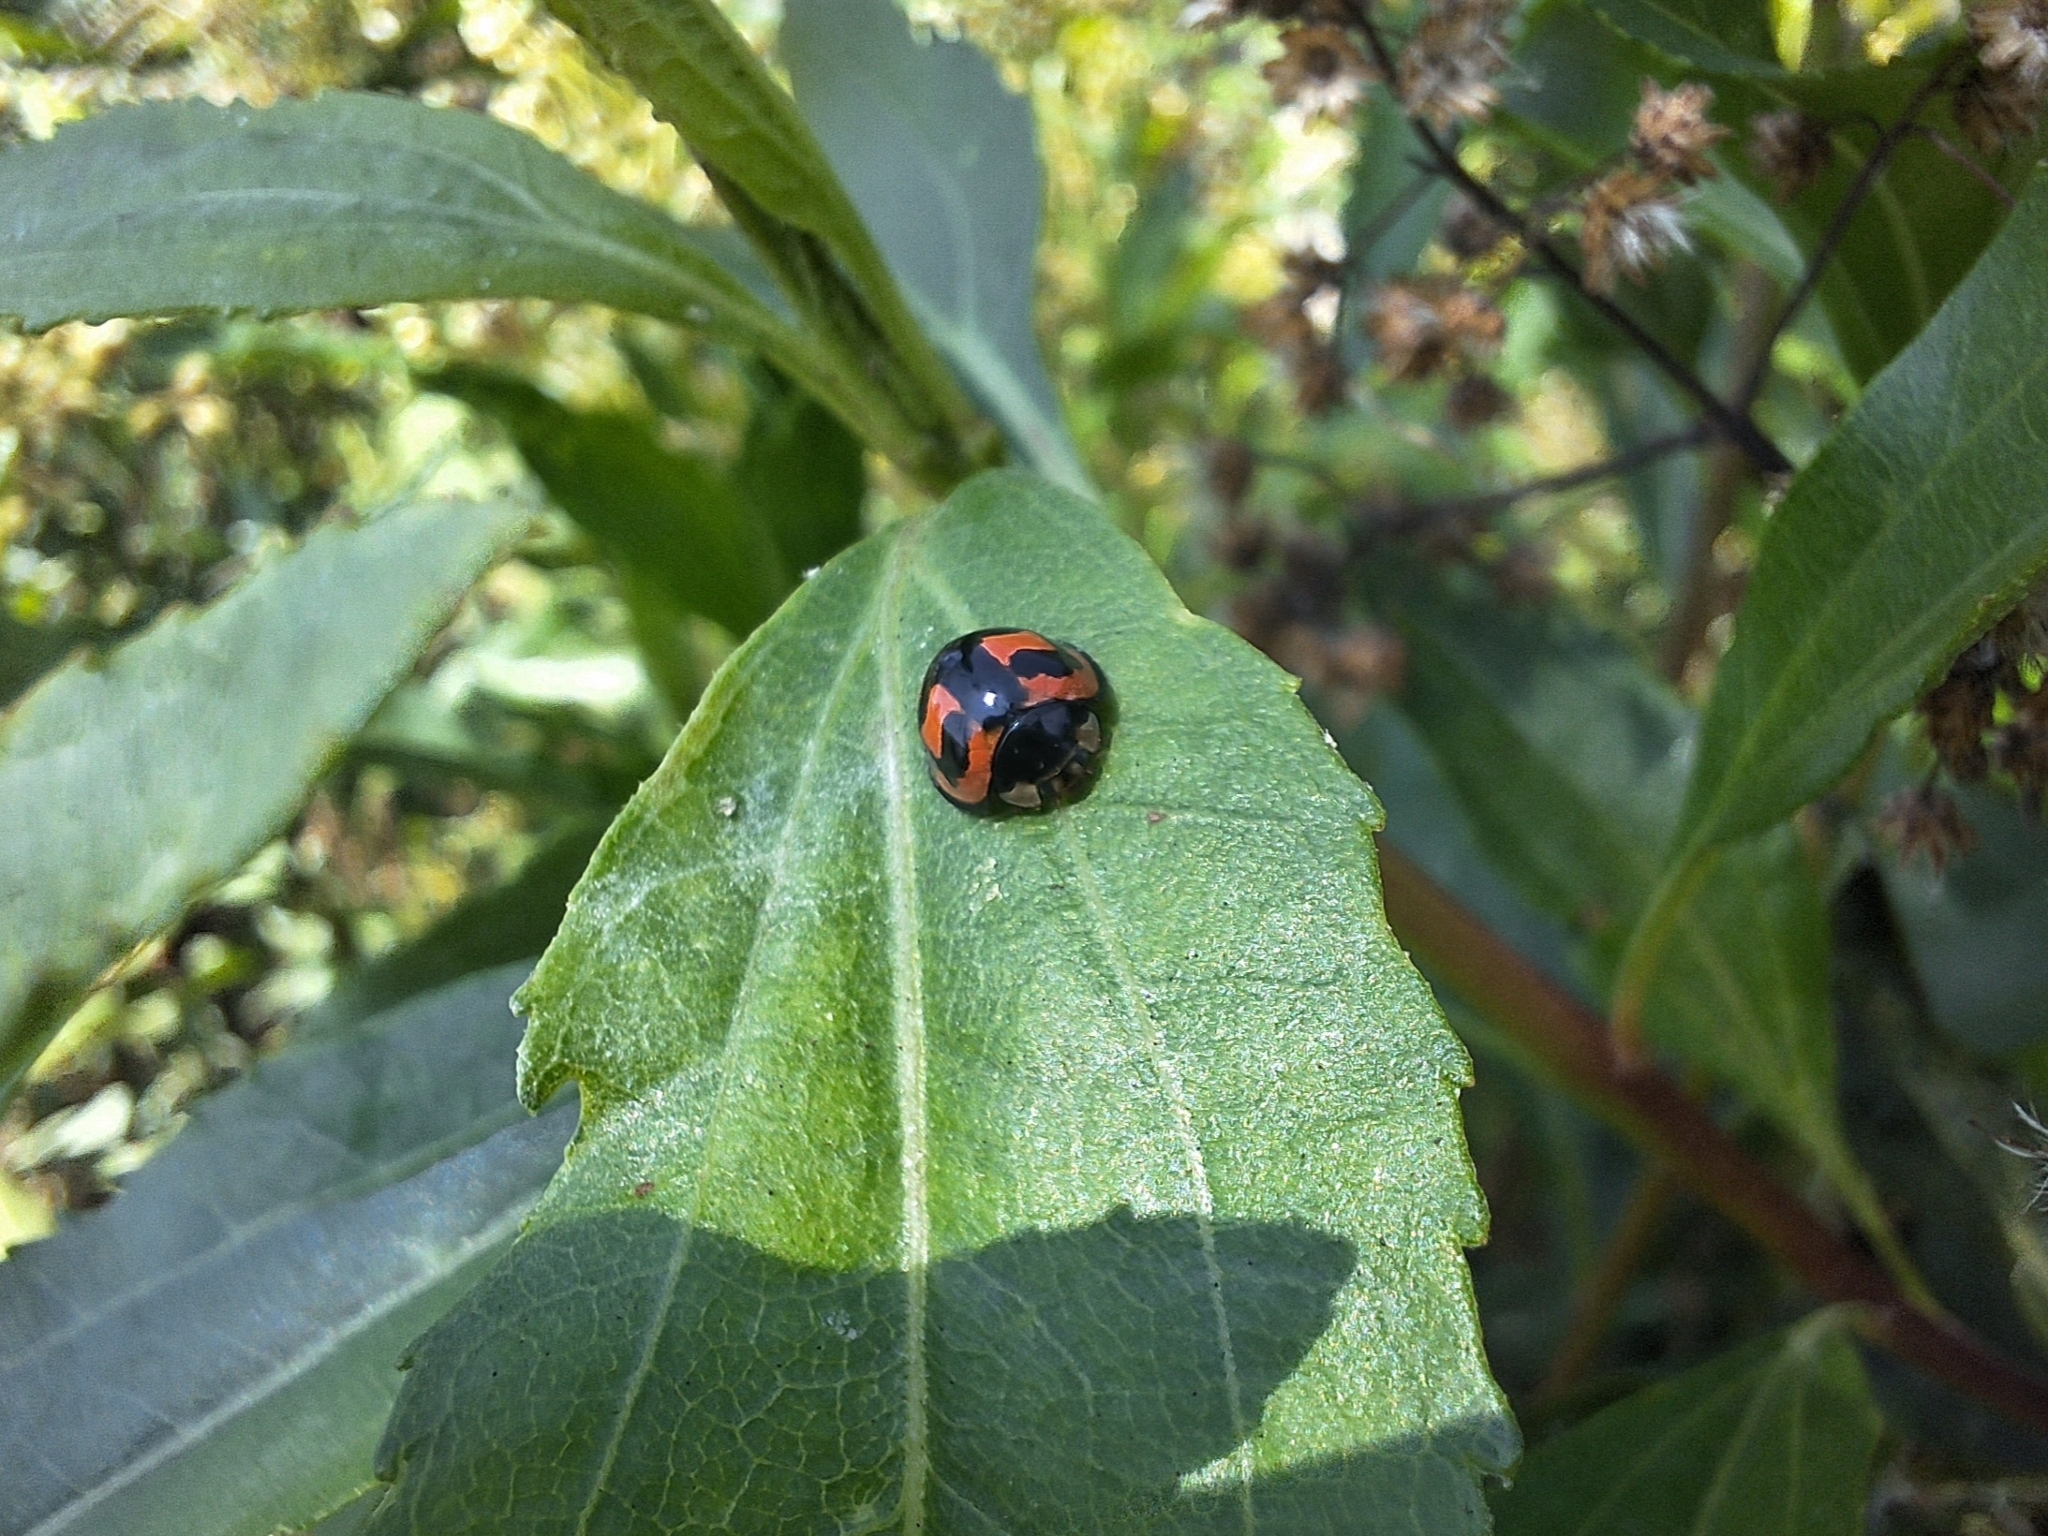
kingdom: Animalia
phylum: Arthropoda
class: Insecta
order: Coleoptera
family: Coccinellidae
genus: Cheilomenes
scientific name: Cheilomenes sexmaculata
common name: Ladybird beetle
